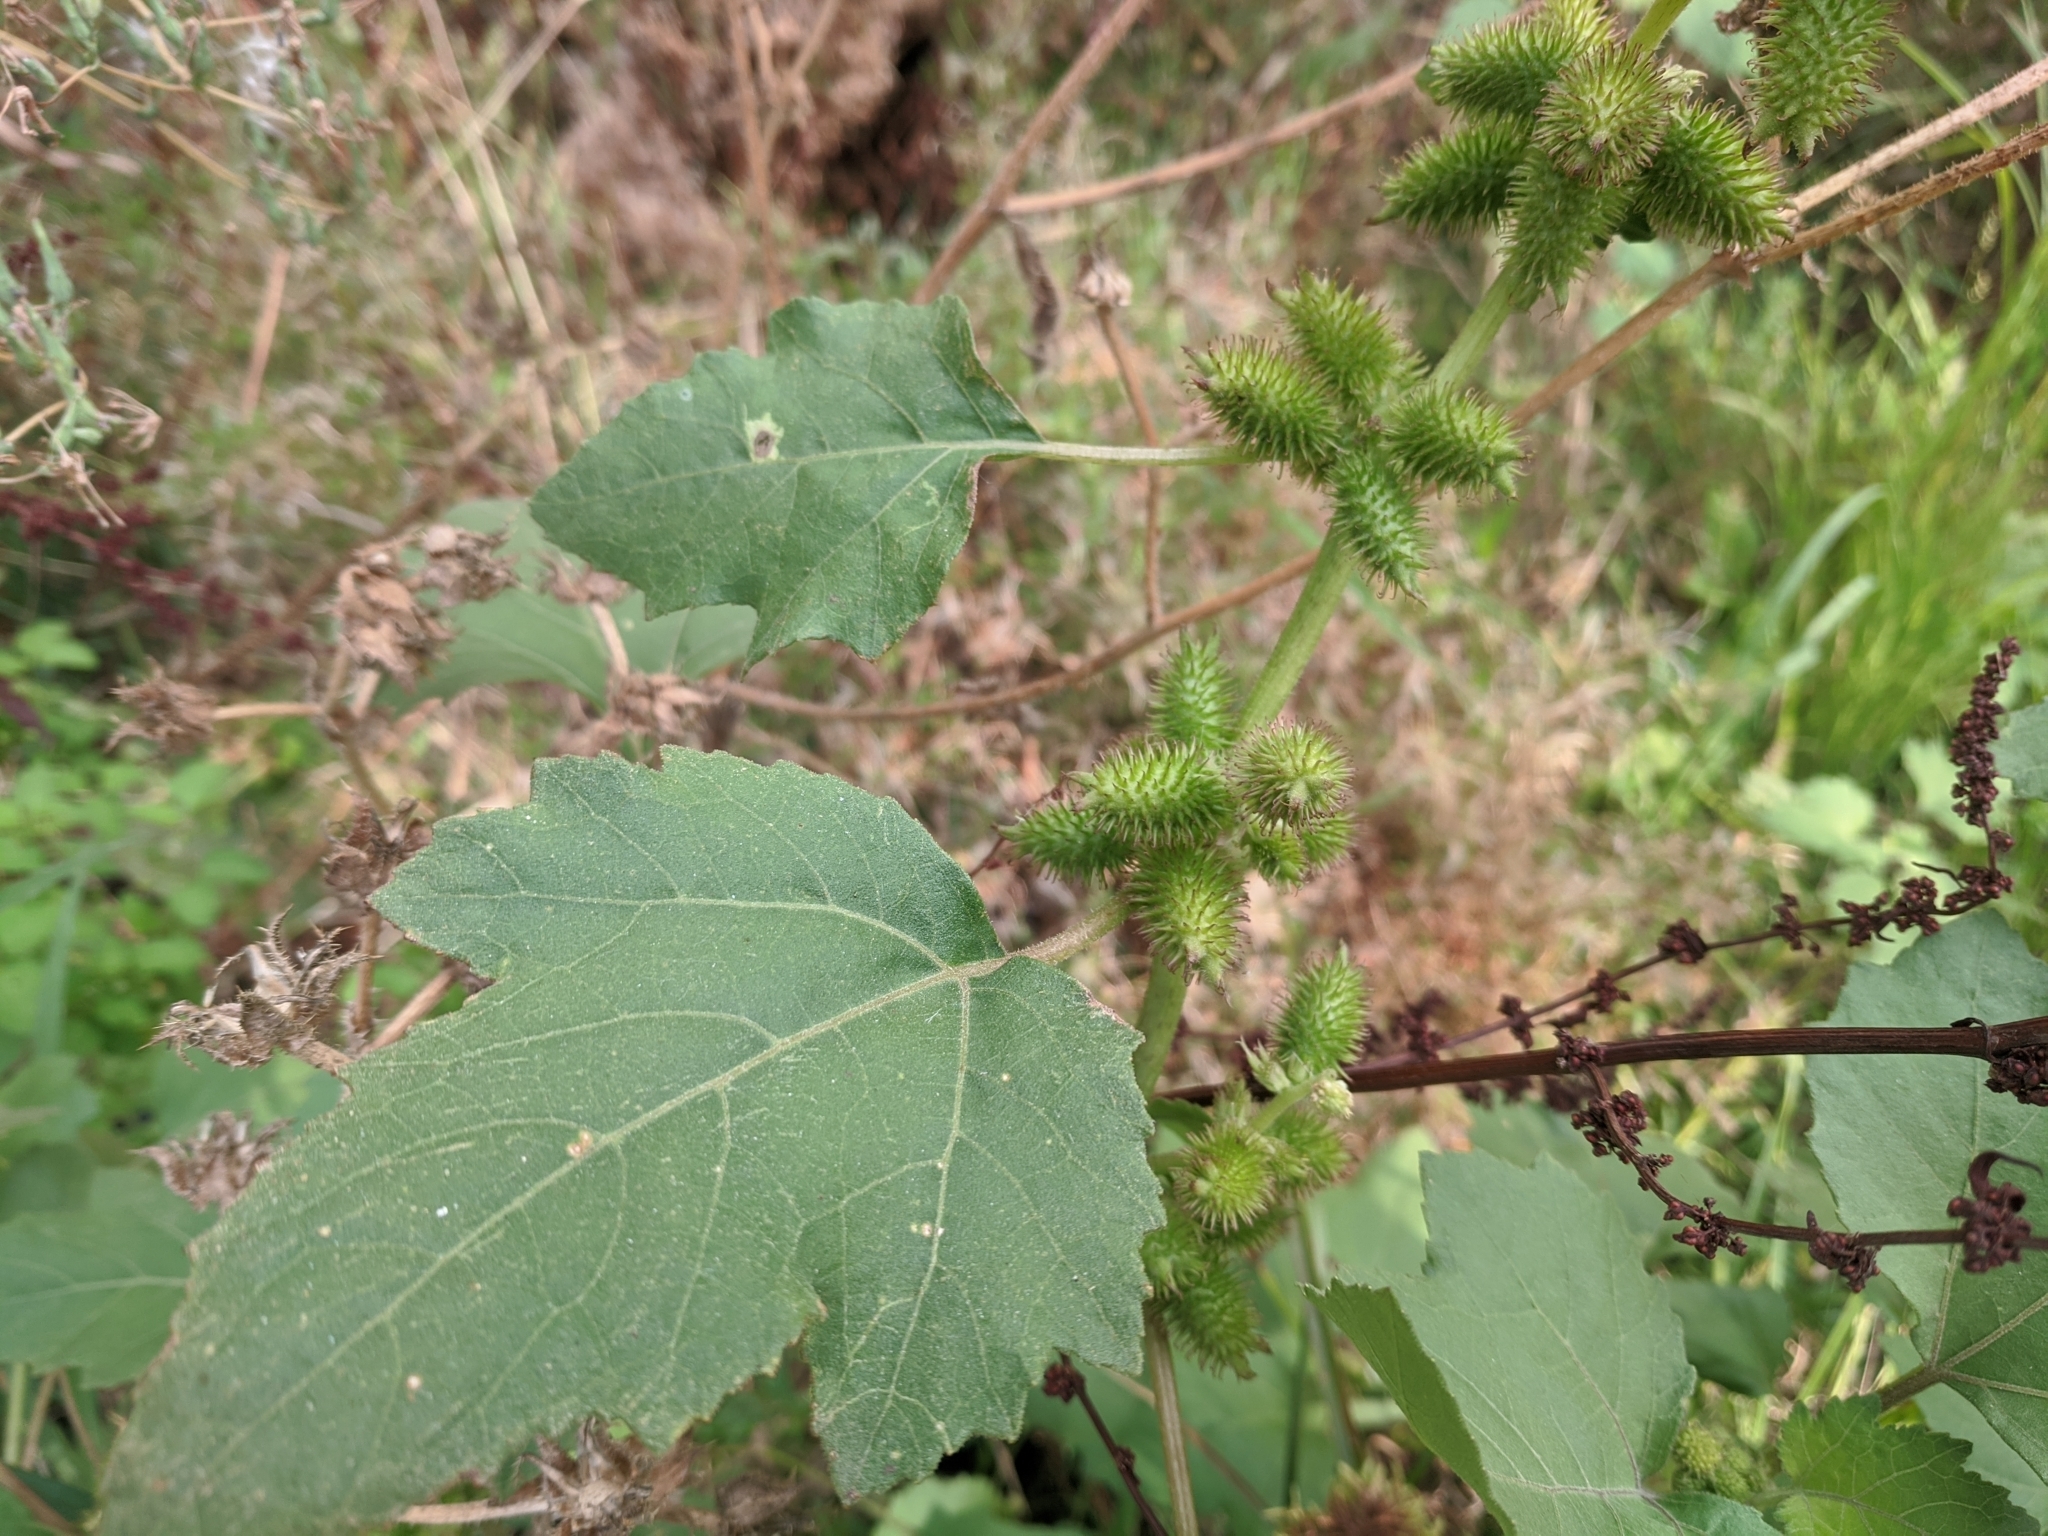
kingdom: Plantae
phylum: Tracheophyta
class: Magnoliopsida
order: Asterales
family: Asteraceae
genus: Xanthium
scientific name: Xanthium strumarium
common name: Rough cocklebur
